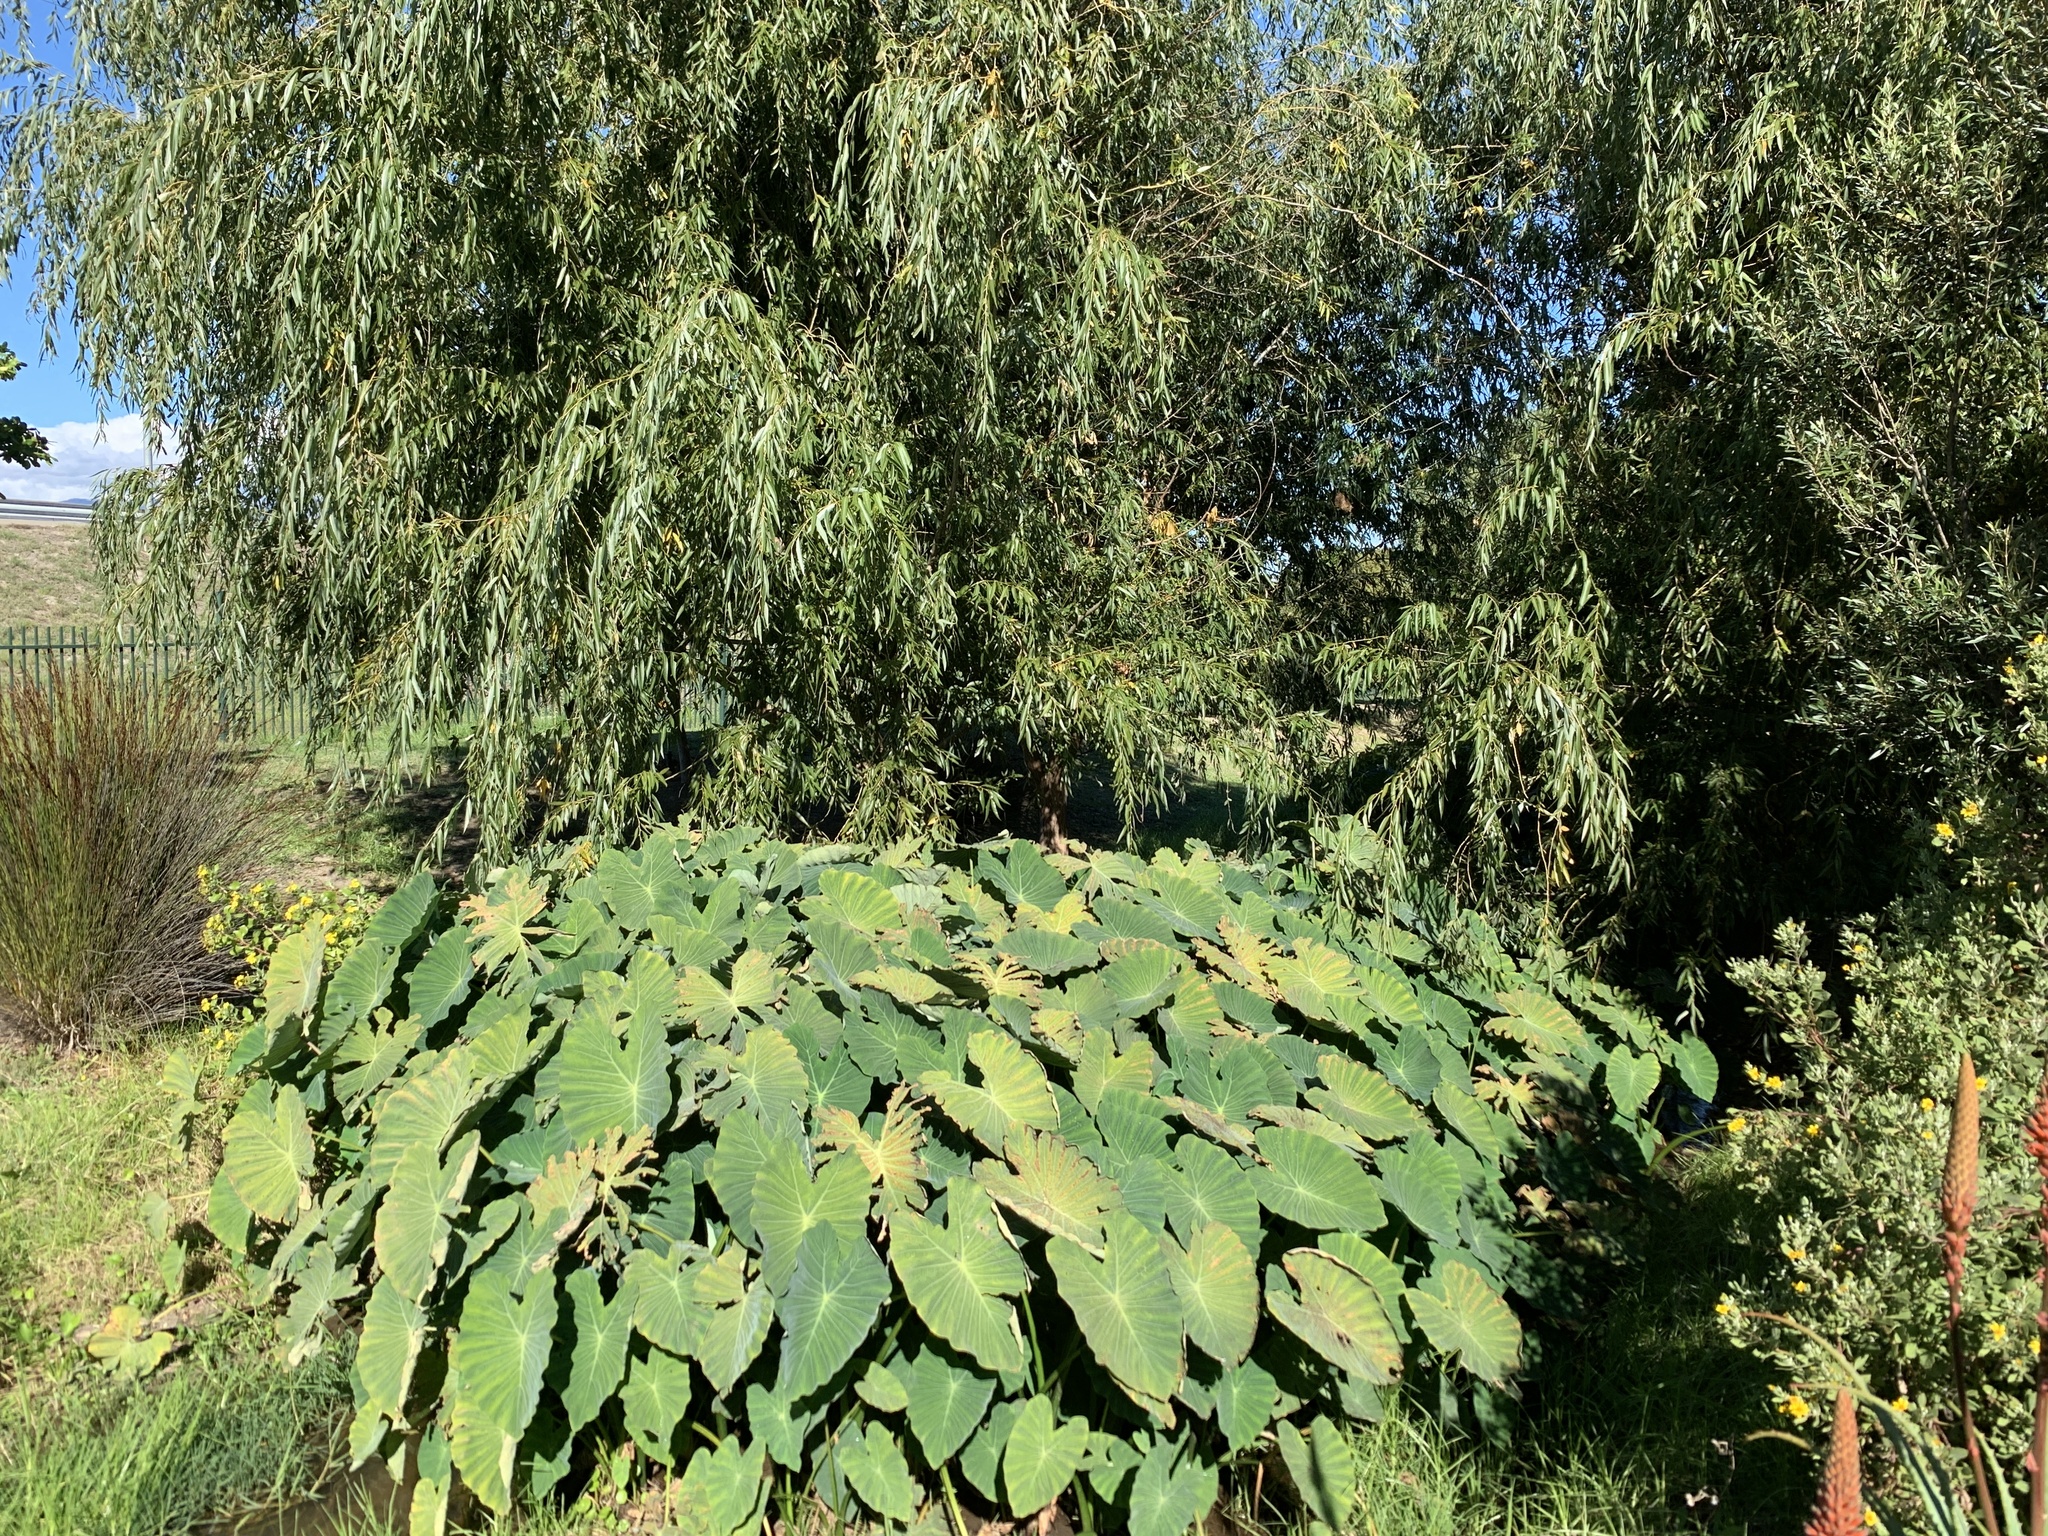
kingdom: Plantae
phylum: Tracheophyta
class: Liliopsida
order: Alismatales
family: Araceae
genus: Colocasia
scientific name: Colocasia esculenta
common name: Taro
